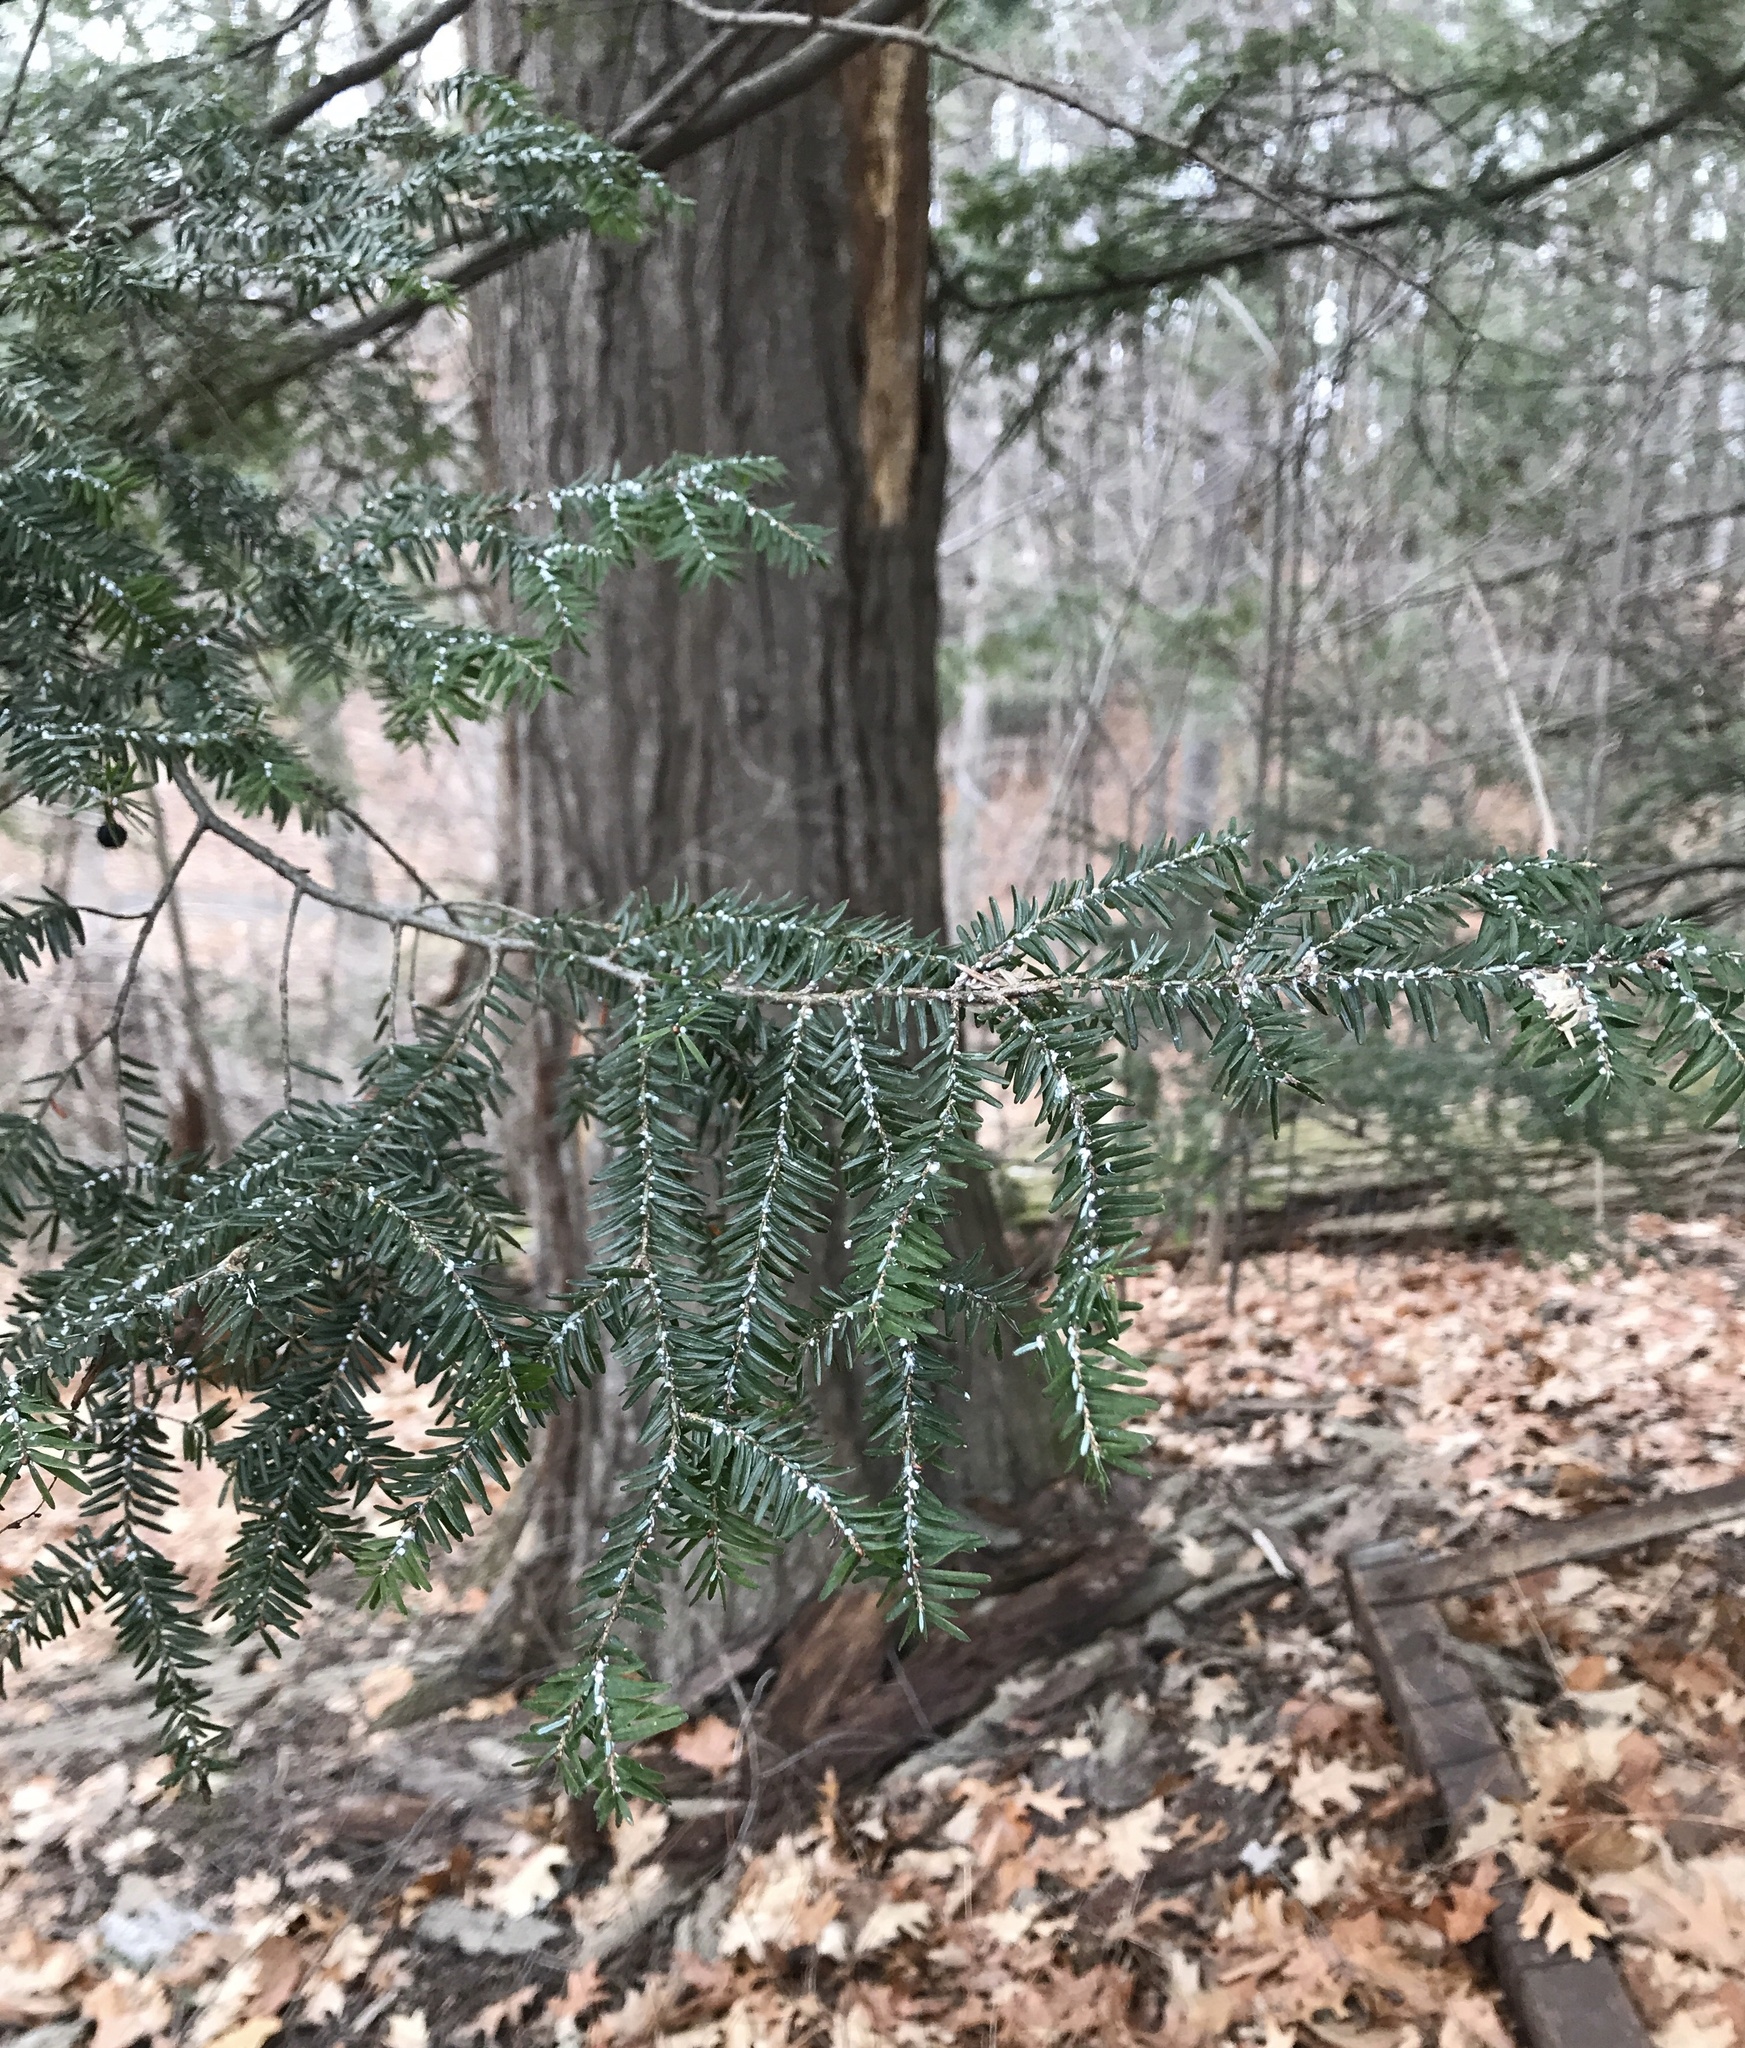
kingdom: Animalia
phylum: Arthropoda
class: Insecta
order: Hemiptera
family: Adelgidae
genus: Adelges
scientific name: Adelges tsugae
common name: Hemlock woolly adelgid
